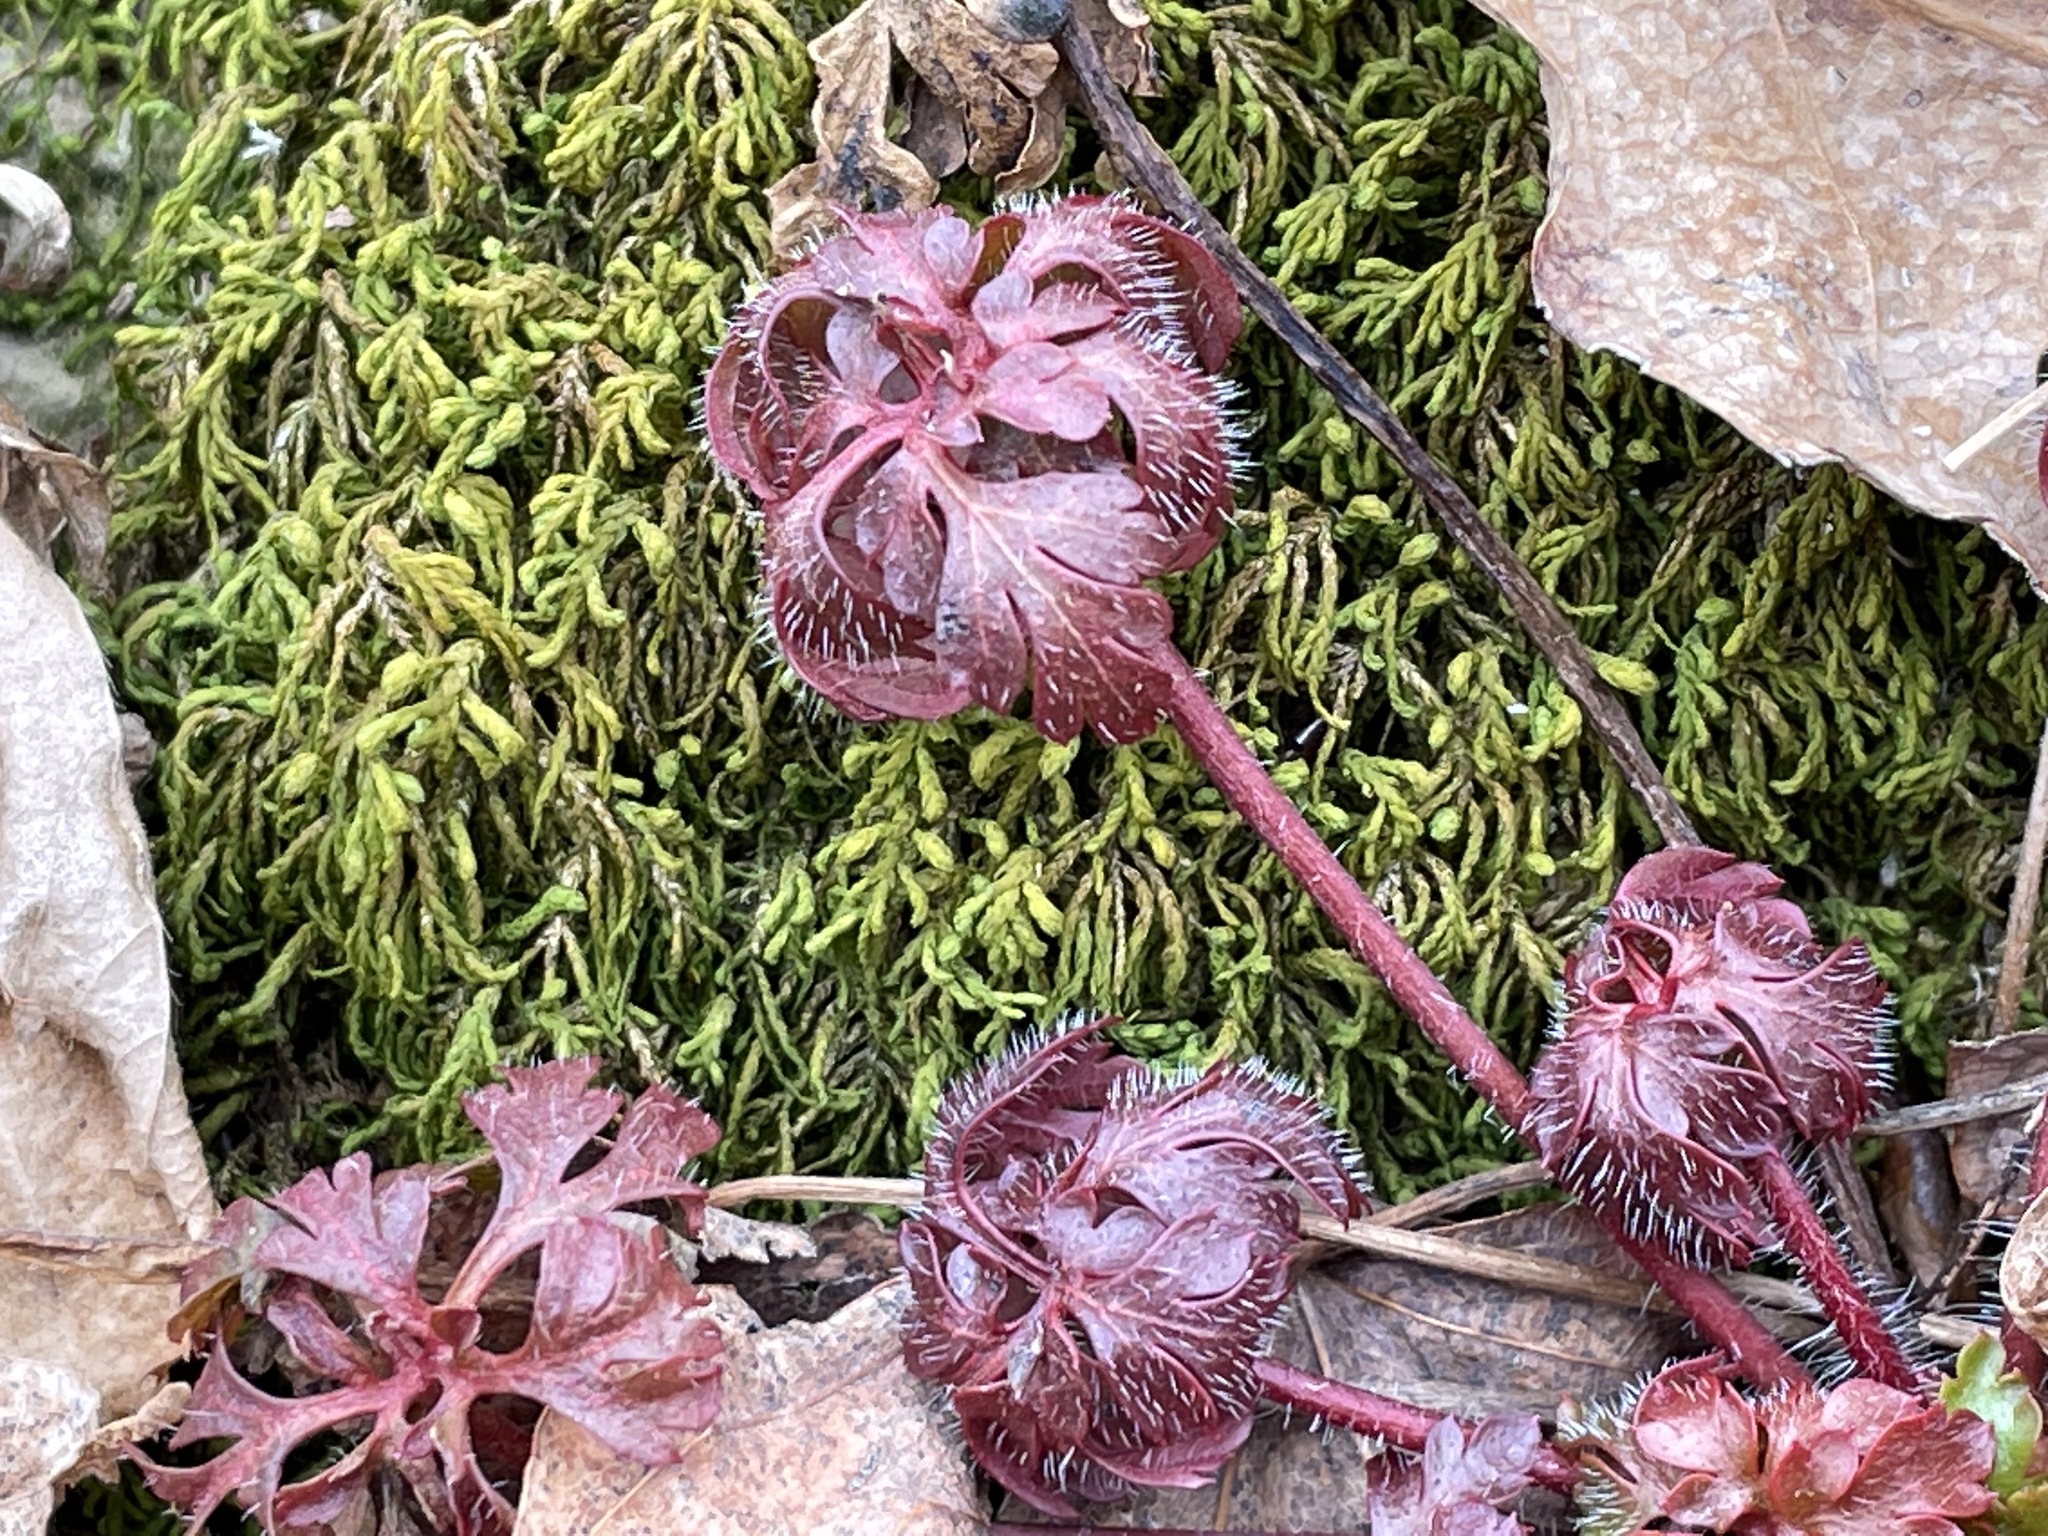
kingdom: Plantae
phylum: Tracheophyta
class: Magnoliopsida
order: Geraniales
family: Geraniaceae
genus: Geranium
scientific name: Geranium robertianum
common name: Herb-robert
